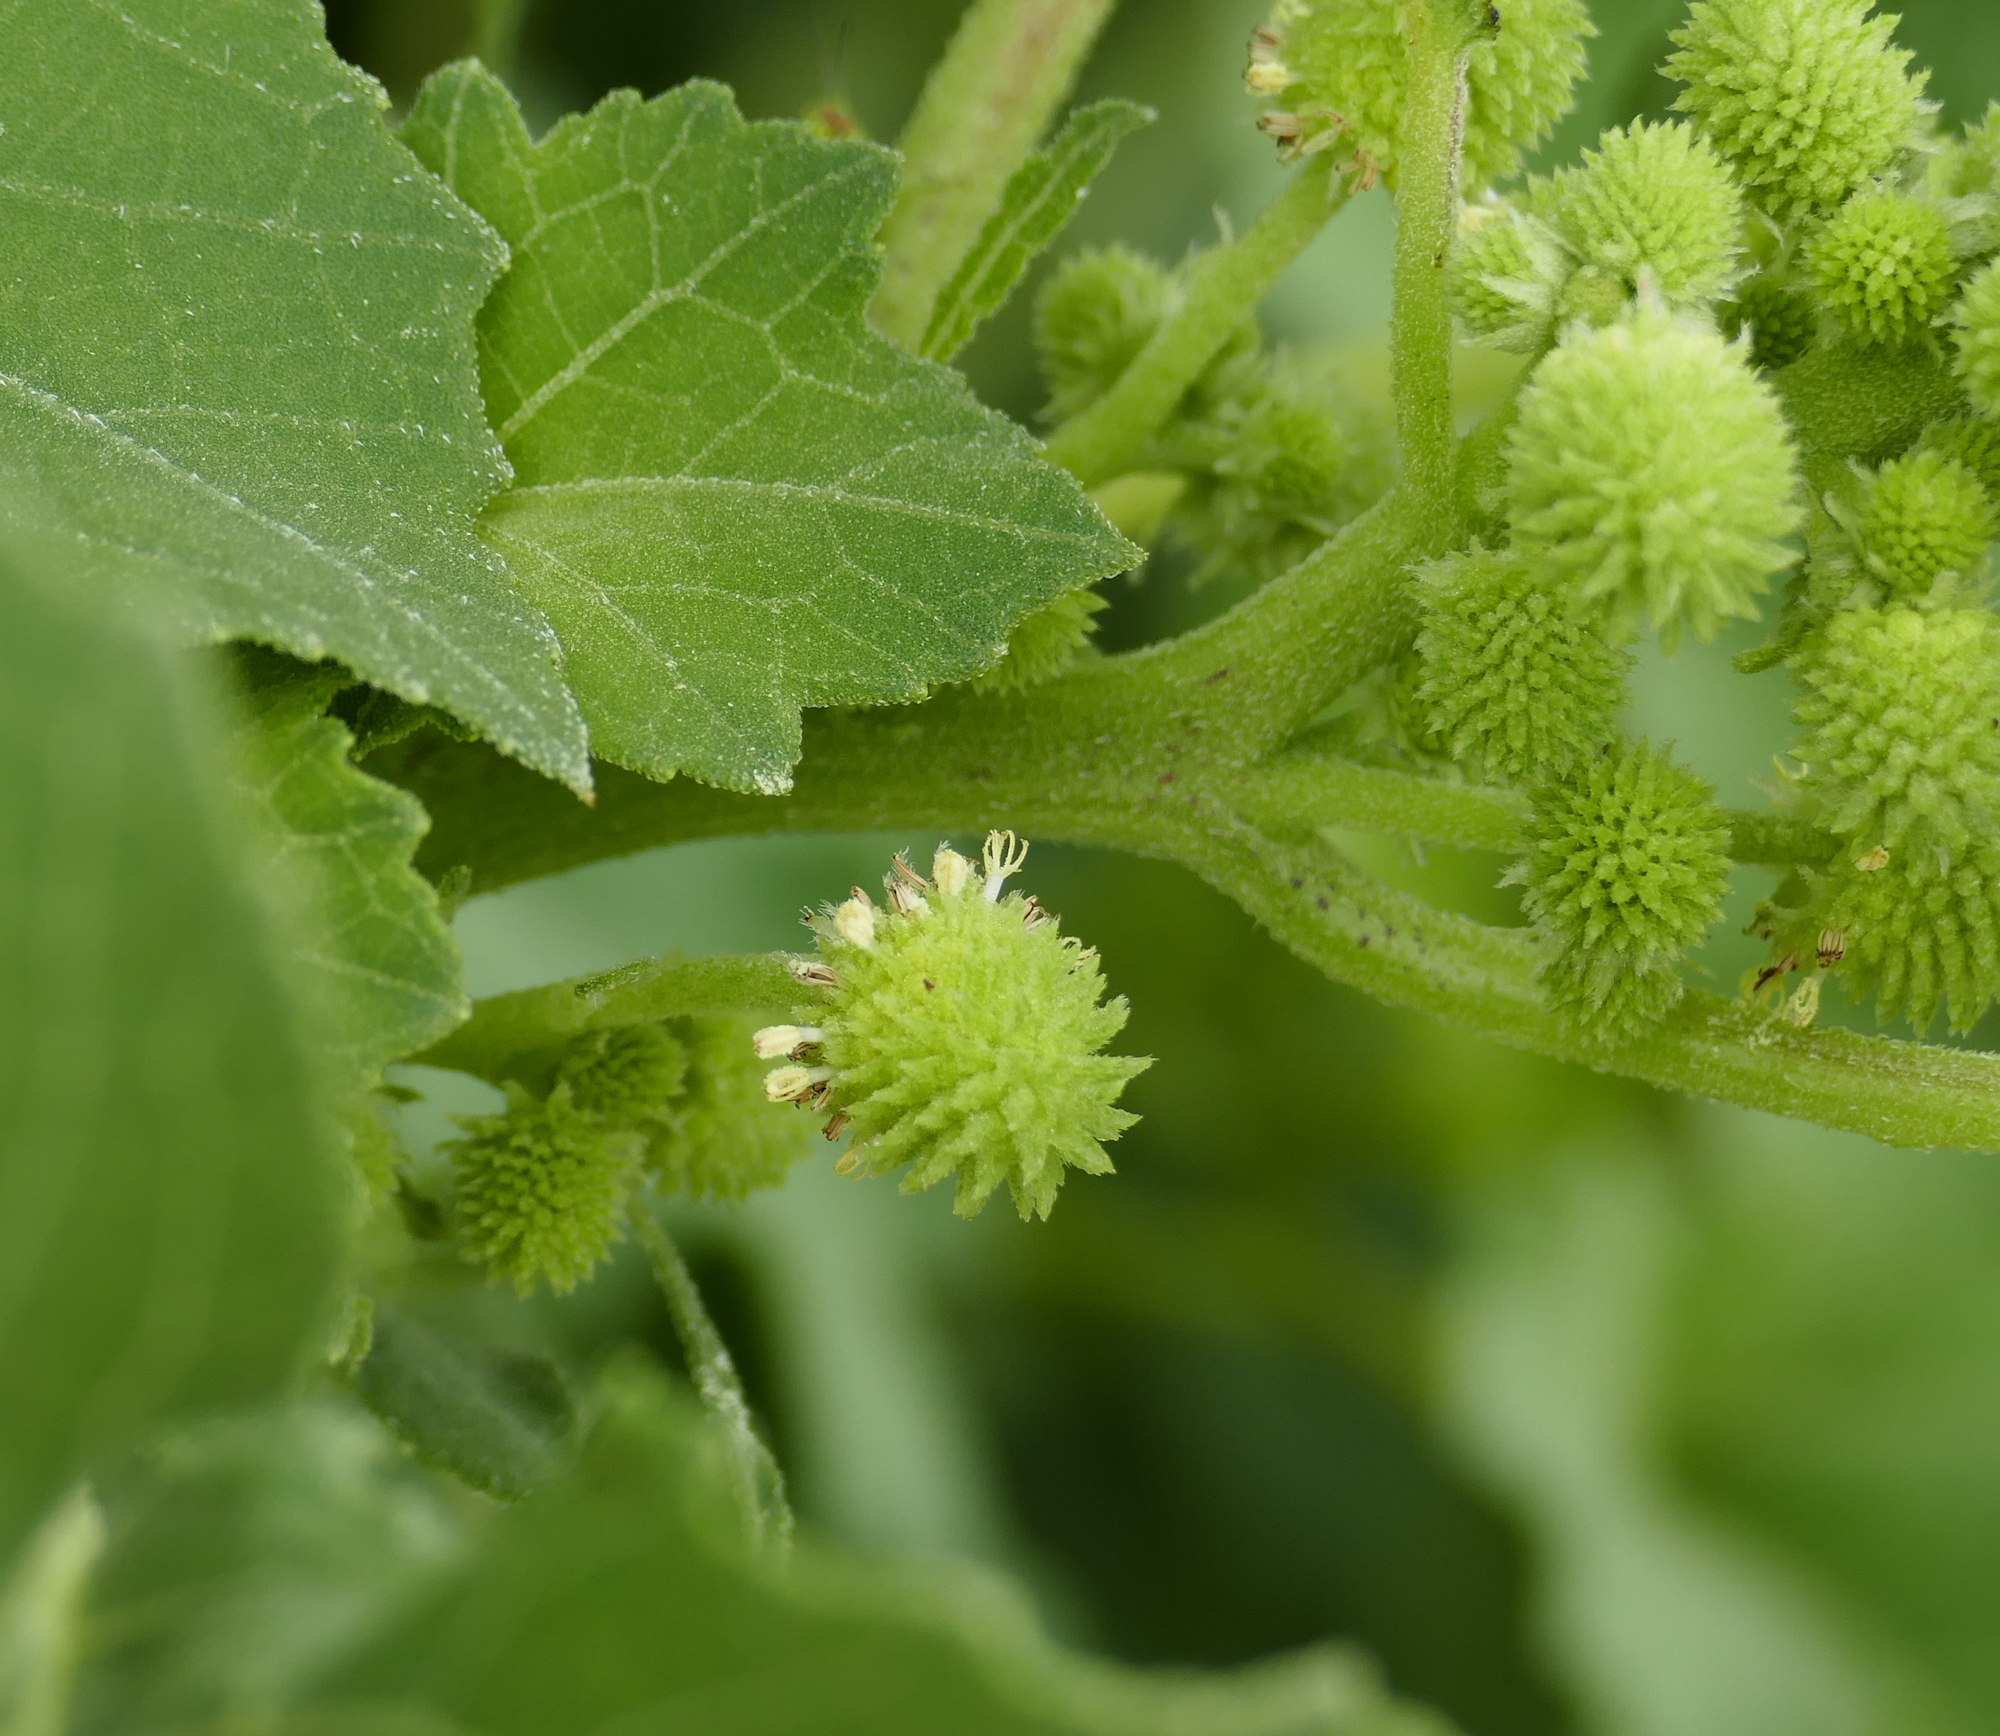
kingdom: Plantae
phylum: Tracheophyta
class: Magnoliopsida
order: Asterales
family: Asteraceae
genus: Xanthium
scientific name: Xanthium strumarium
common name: Rough cocklebur
